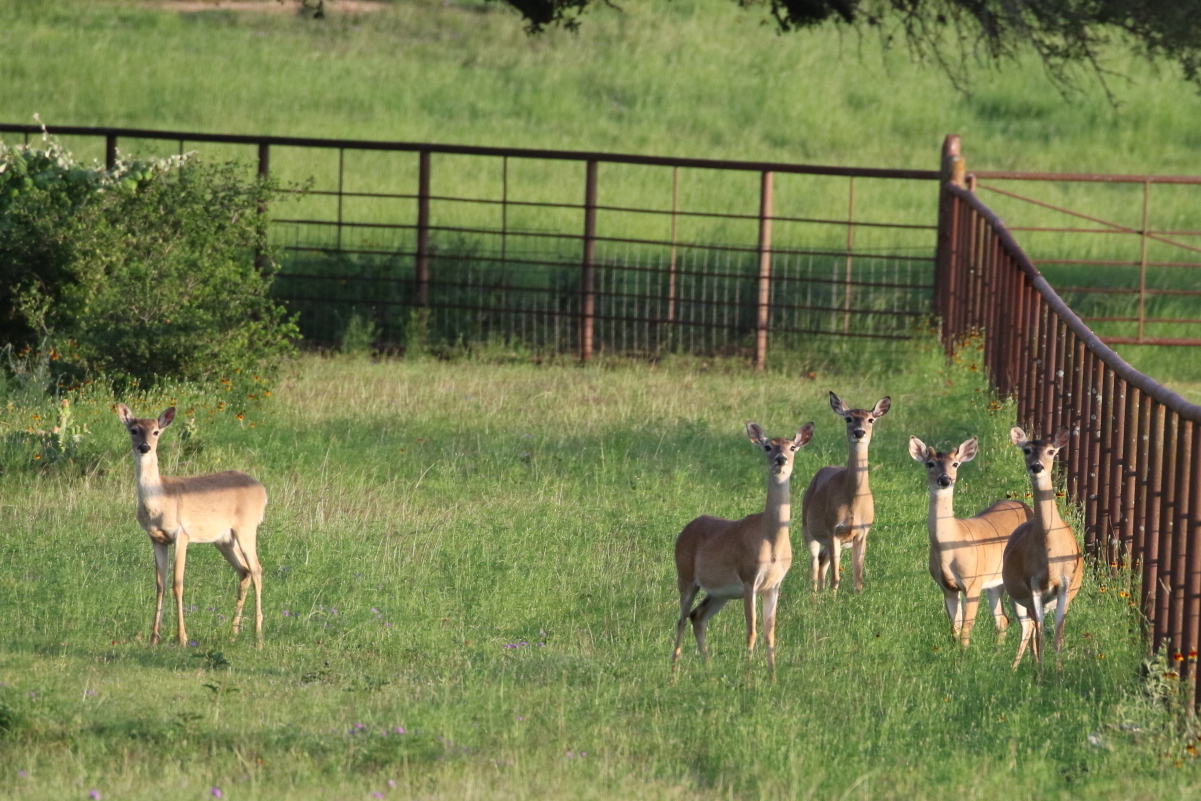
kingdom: Animalia
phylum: Chordata
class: Mammalia
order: Artiodactyla
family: Cervidae
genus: Odocoileus
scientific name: Odocoileus virginianus
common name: White-tailed deer
